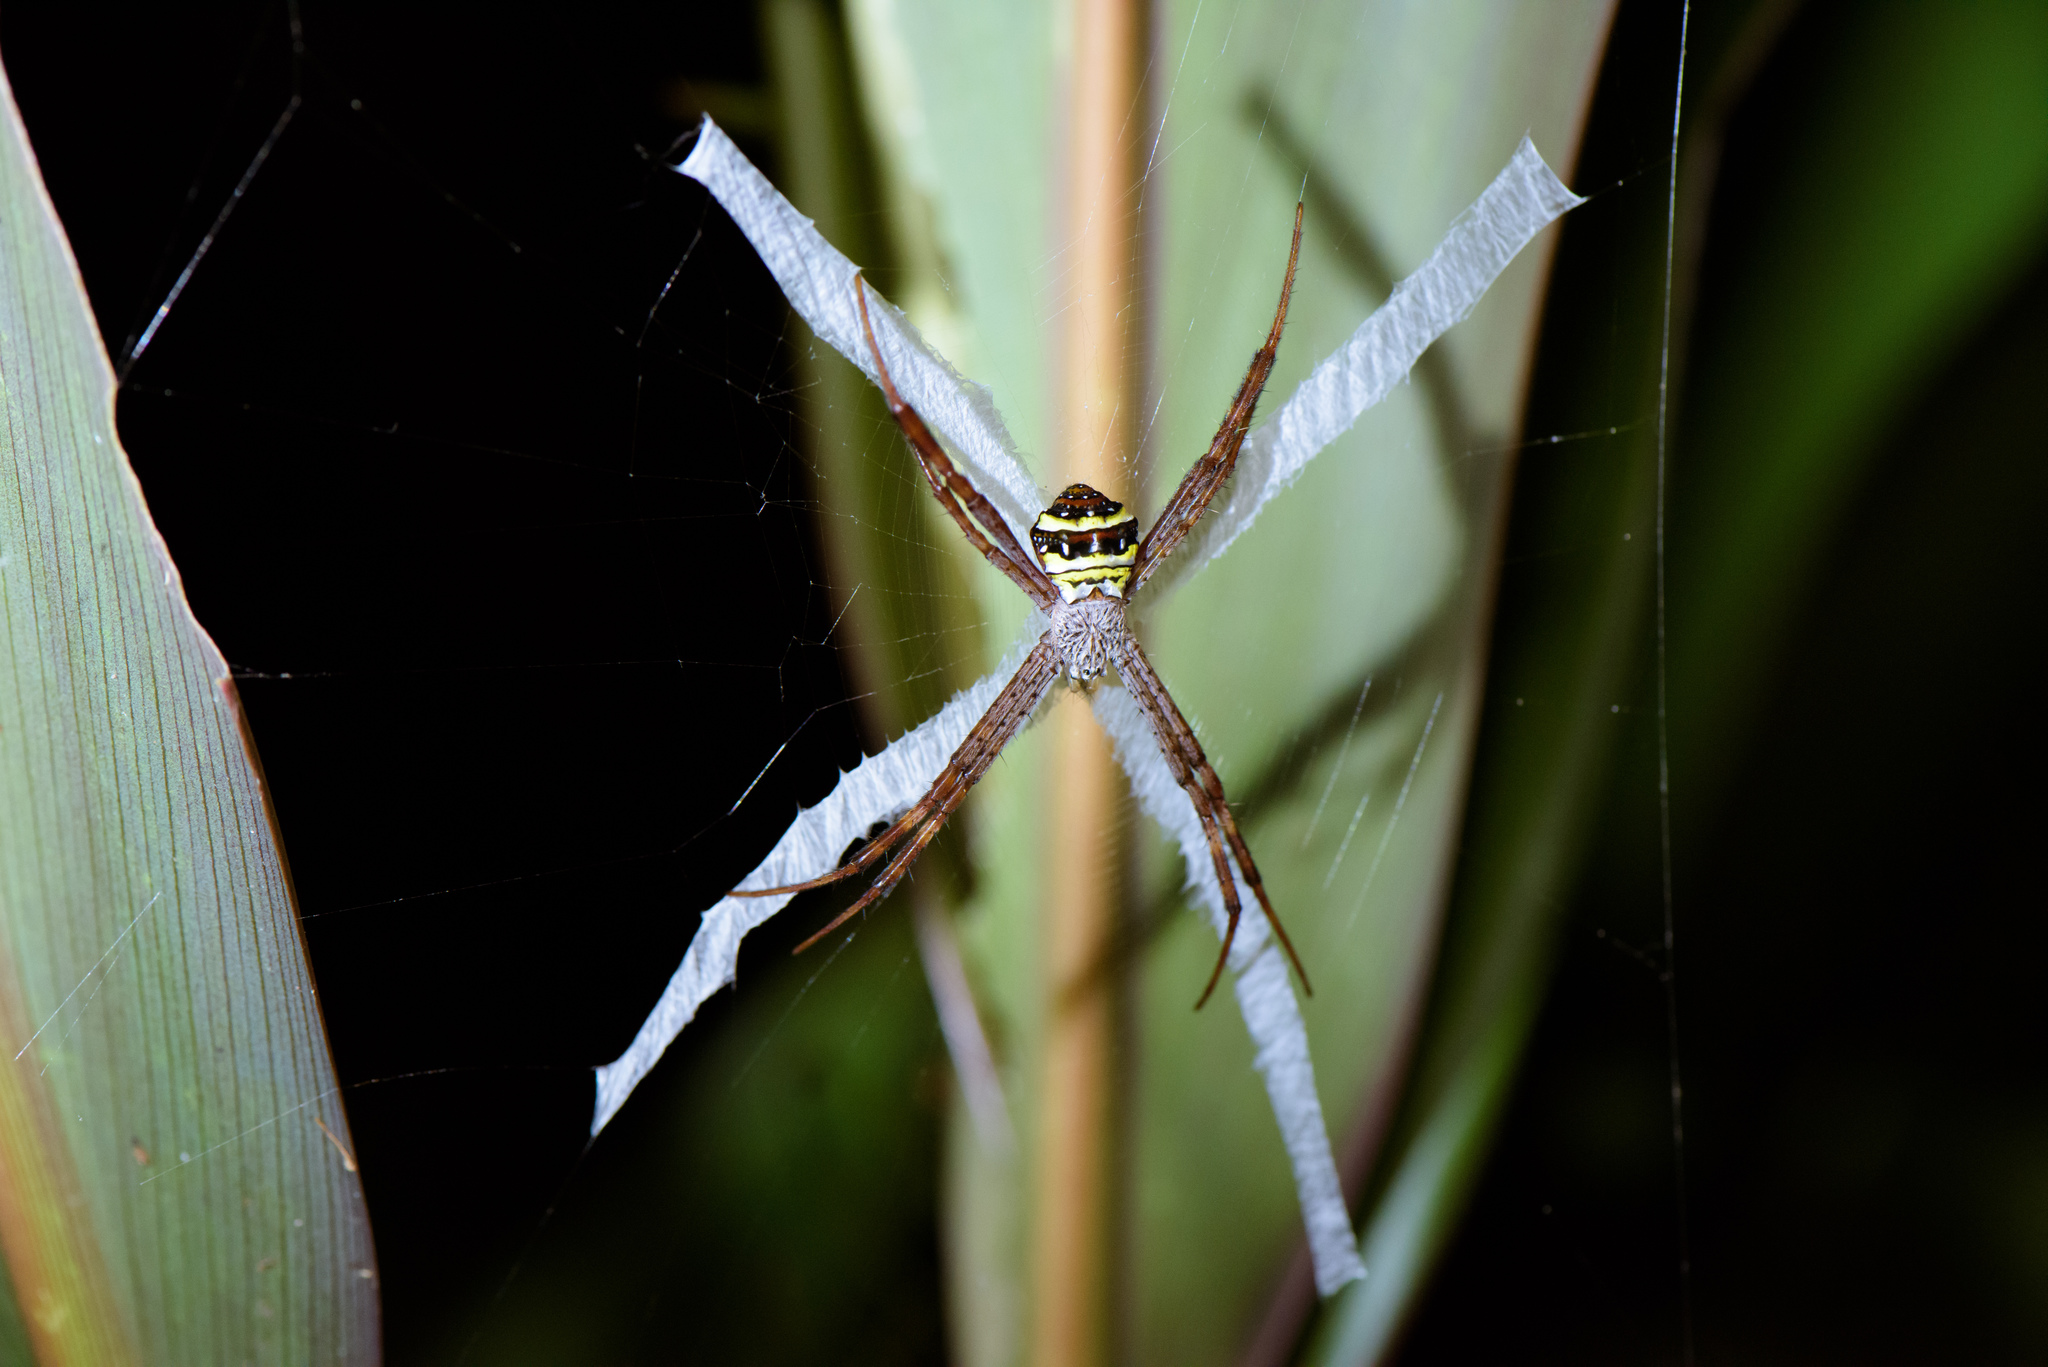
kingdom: Animalia
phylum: Arthropoda
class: Arachnida
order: Araneae
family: Araneidae
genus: Argiope
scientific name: Argiope aetheroides
